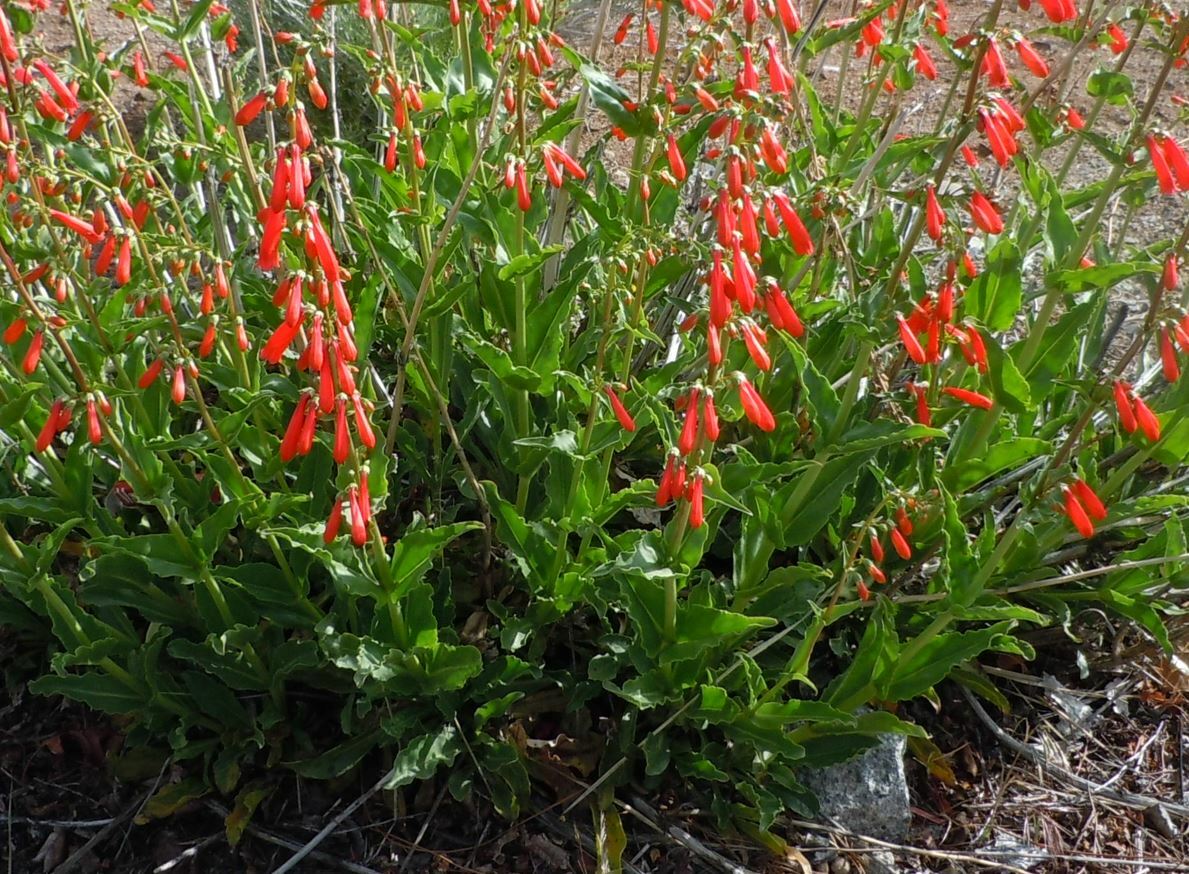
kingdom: Plantae
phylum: Tracheophyta
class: Magnoliopsida
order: Lamiales
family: Plantaginaceae
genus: Penstemon
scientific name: Penstemon eatonii
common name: Eaton's penstemon
